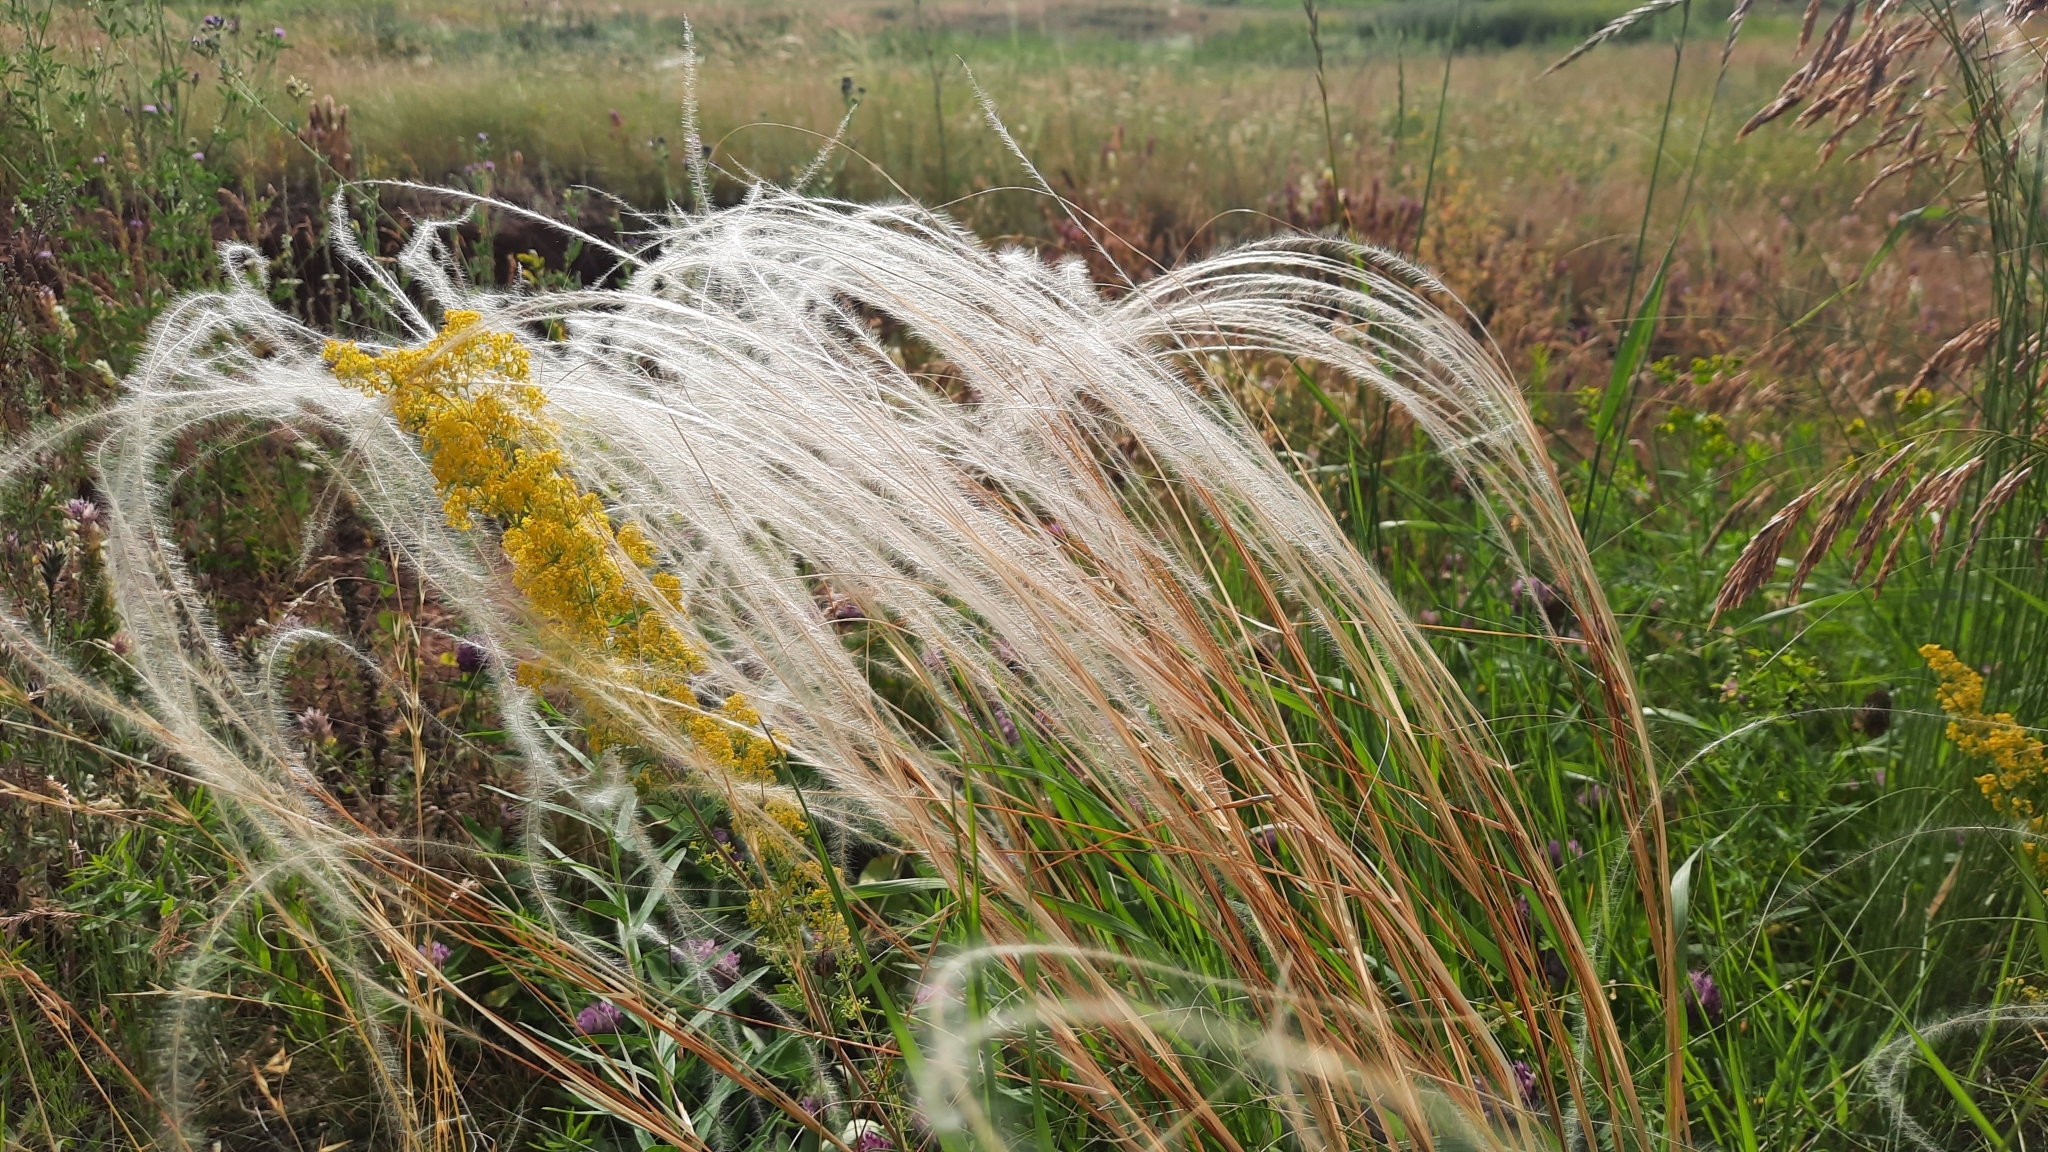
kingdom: Plantae
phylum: Tracheophyta
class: Liliopsida
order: Poales
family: Poaceae
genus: Stipa
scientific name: Stipa pennata
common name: European feather grass
